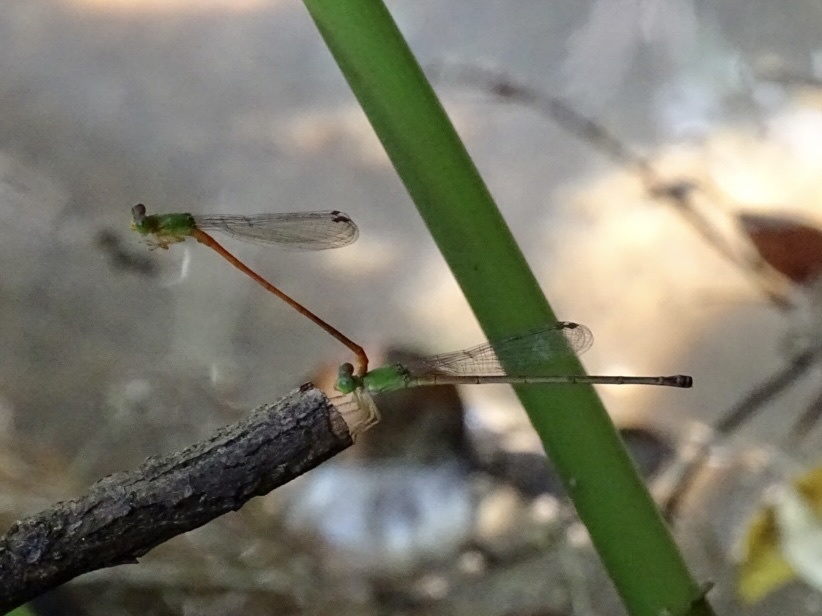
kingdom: Animalia
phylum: Arthropoda
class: Insecta
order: Odonata
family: Coenagrionidae
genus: Ceriagrion
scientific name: Ceriagrion auranticum
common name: Orange-tailed sprite
